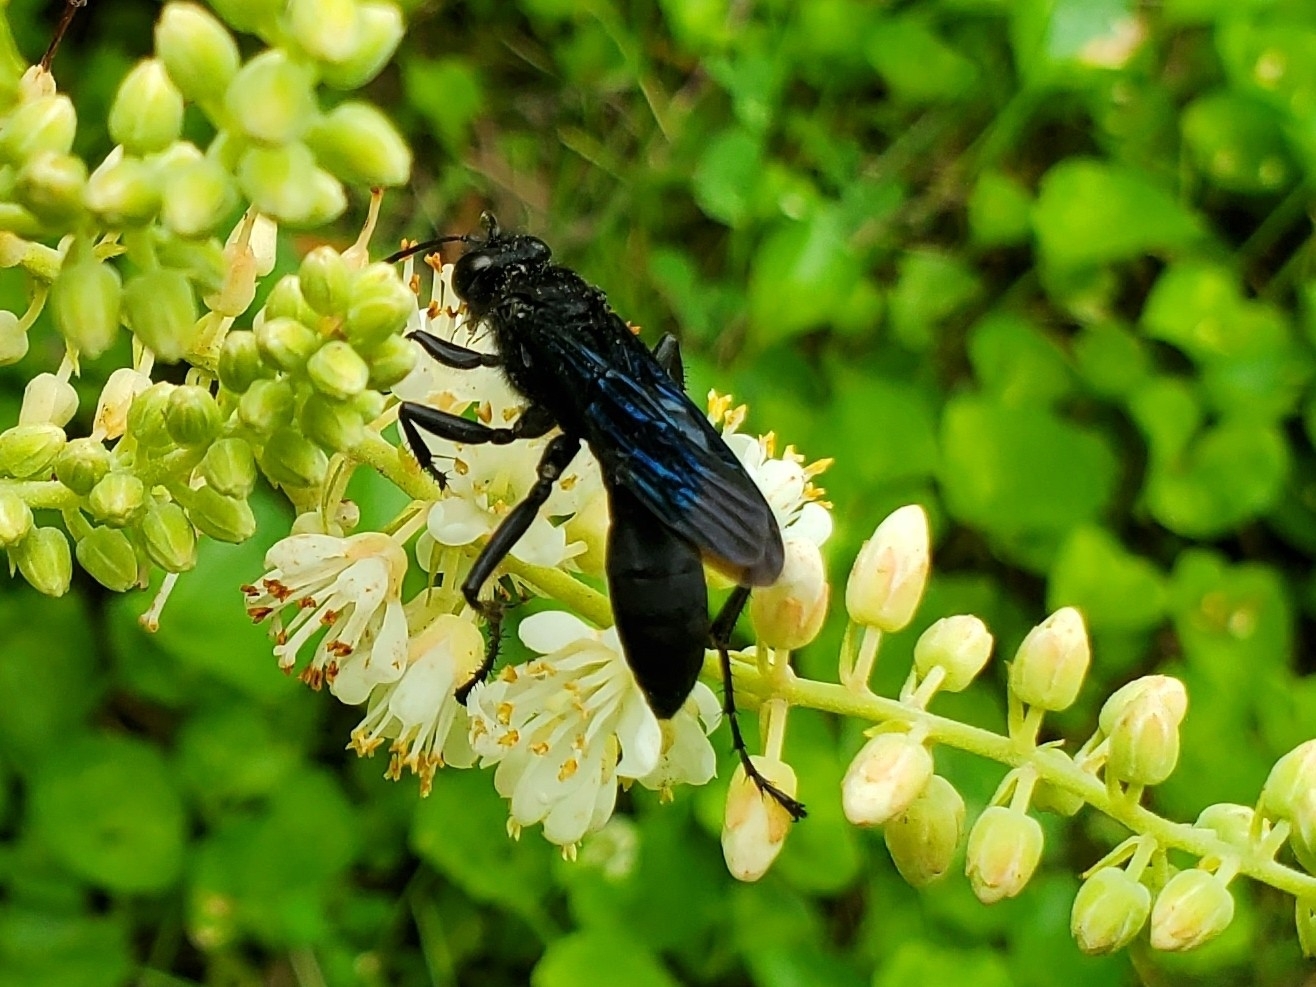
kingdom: Animalia
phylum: Arthropoda
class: Insecta
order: Hymenoptera
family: Sphecidae
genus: Sphex
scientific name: Sphex pensylvanicus
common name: Great black digger wasp
